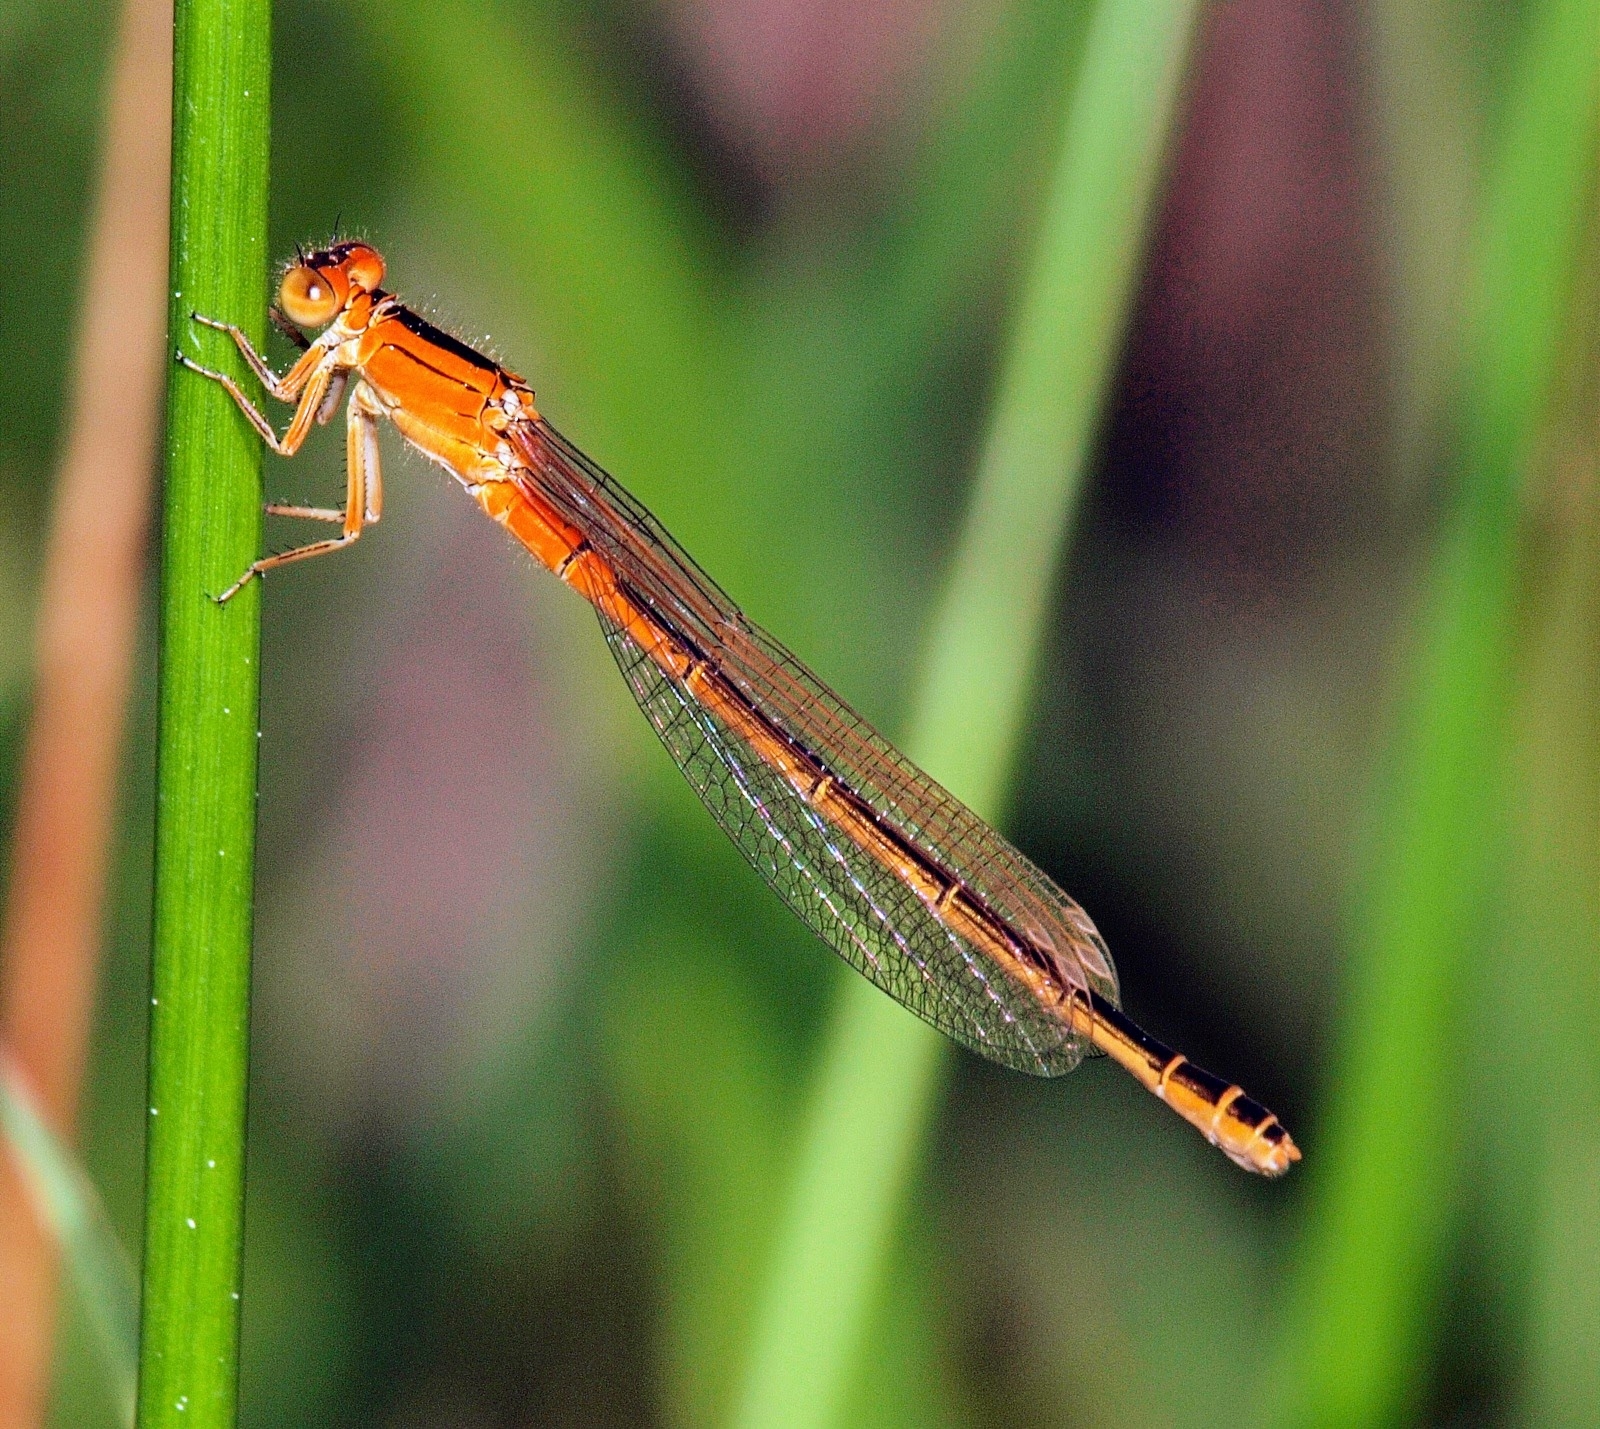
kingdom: Animalia
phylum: Arthropoda
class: Insecta
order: Odonata
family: Coenagrionidae
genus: Ischnura
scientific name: Ischnura pumilio
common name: Scarce blue-tailed damselfly
